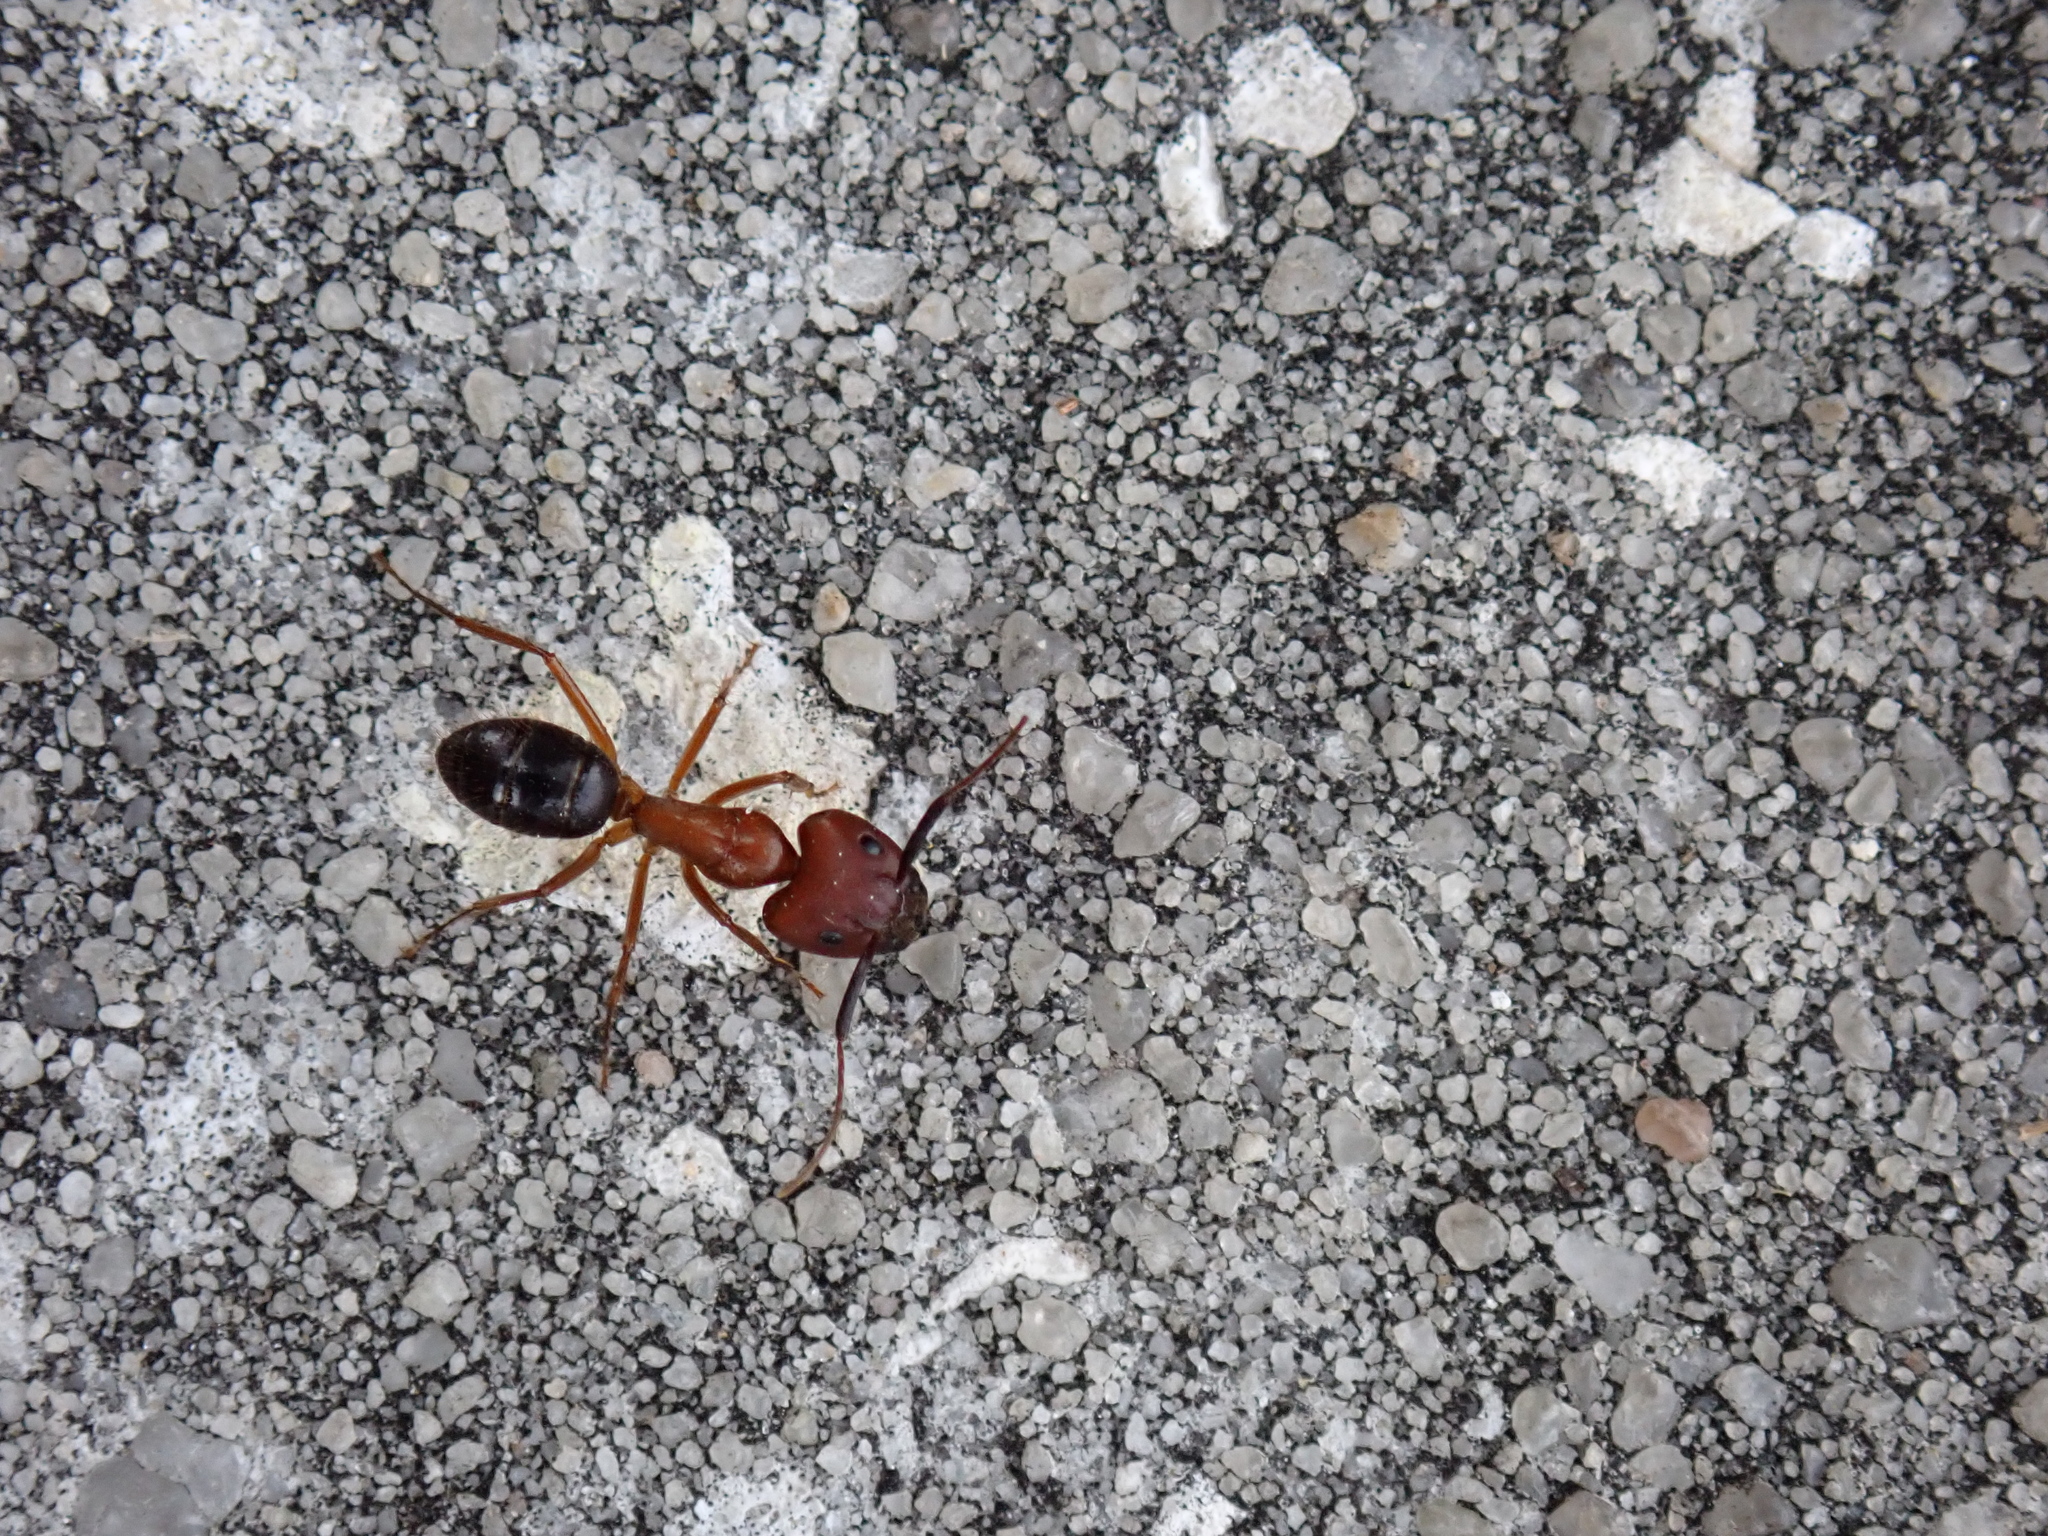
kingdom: Animalia
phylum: Arthropoda
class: Insecta
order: Hymenoptera
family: Formicidae
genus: Camponotus
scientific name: Camponotus floridanus
